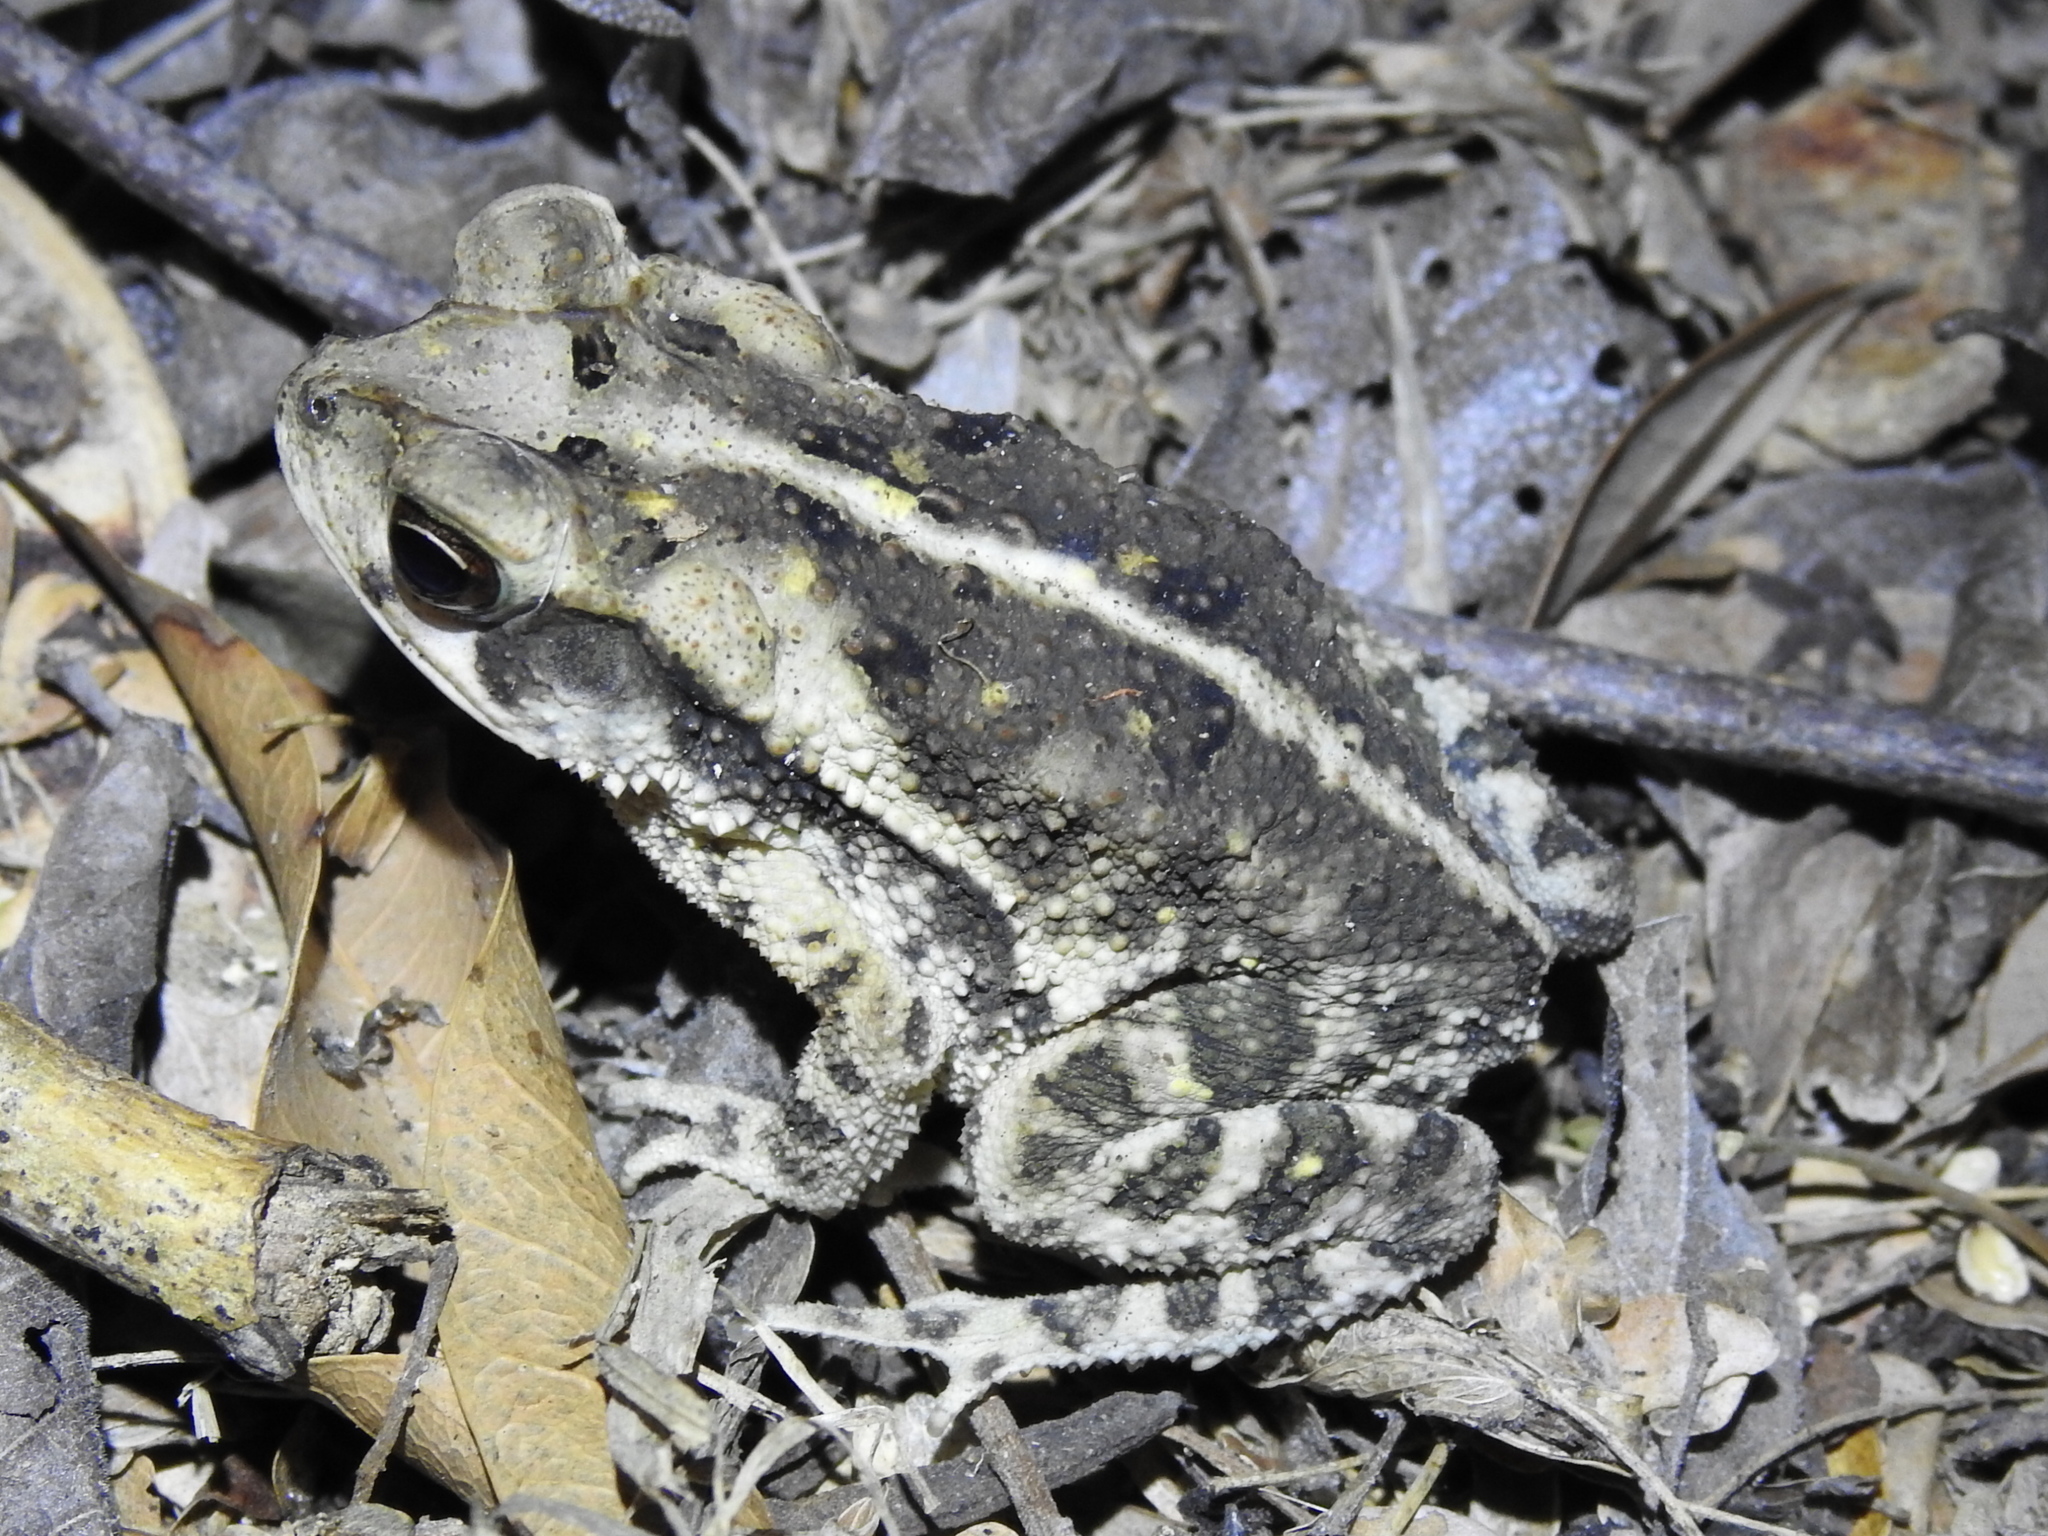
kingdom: Animalia
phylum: Chordata
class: Amphibia
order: Anura
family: Bufonidae
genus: Incilius
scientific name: Incilius nebulifer
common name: Gulf coast toad
